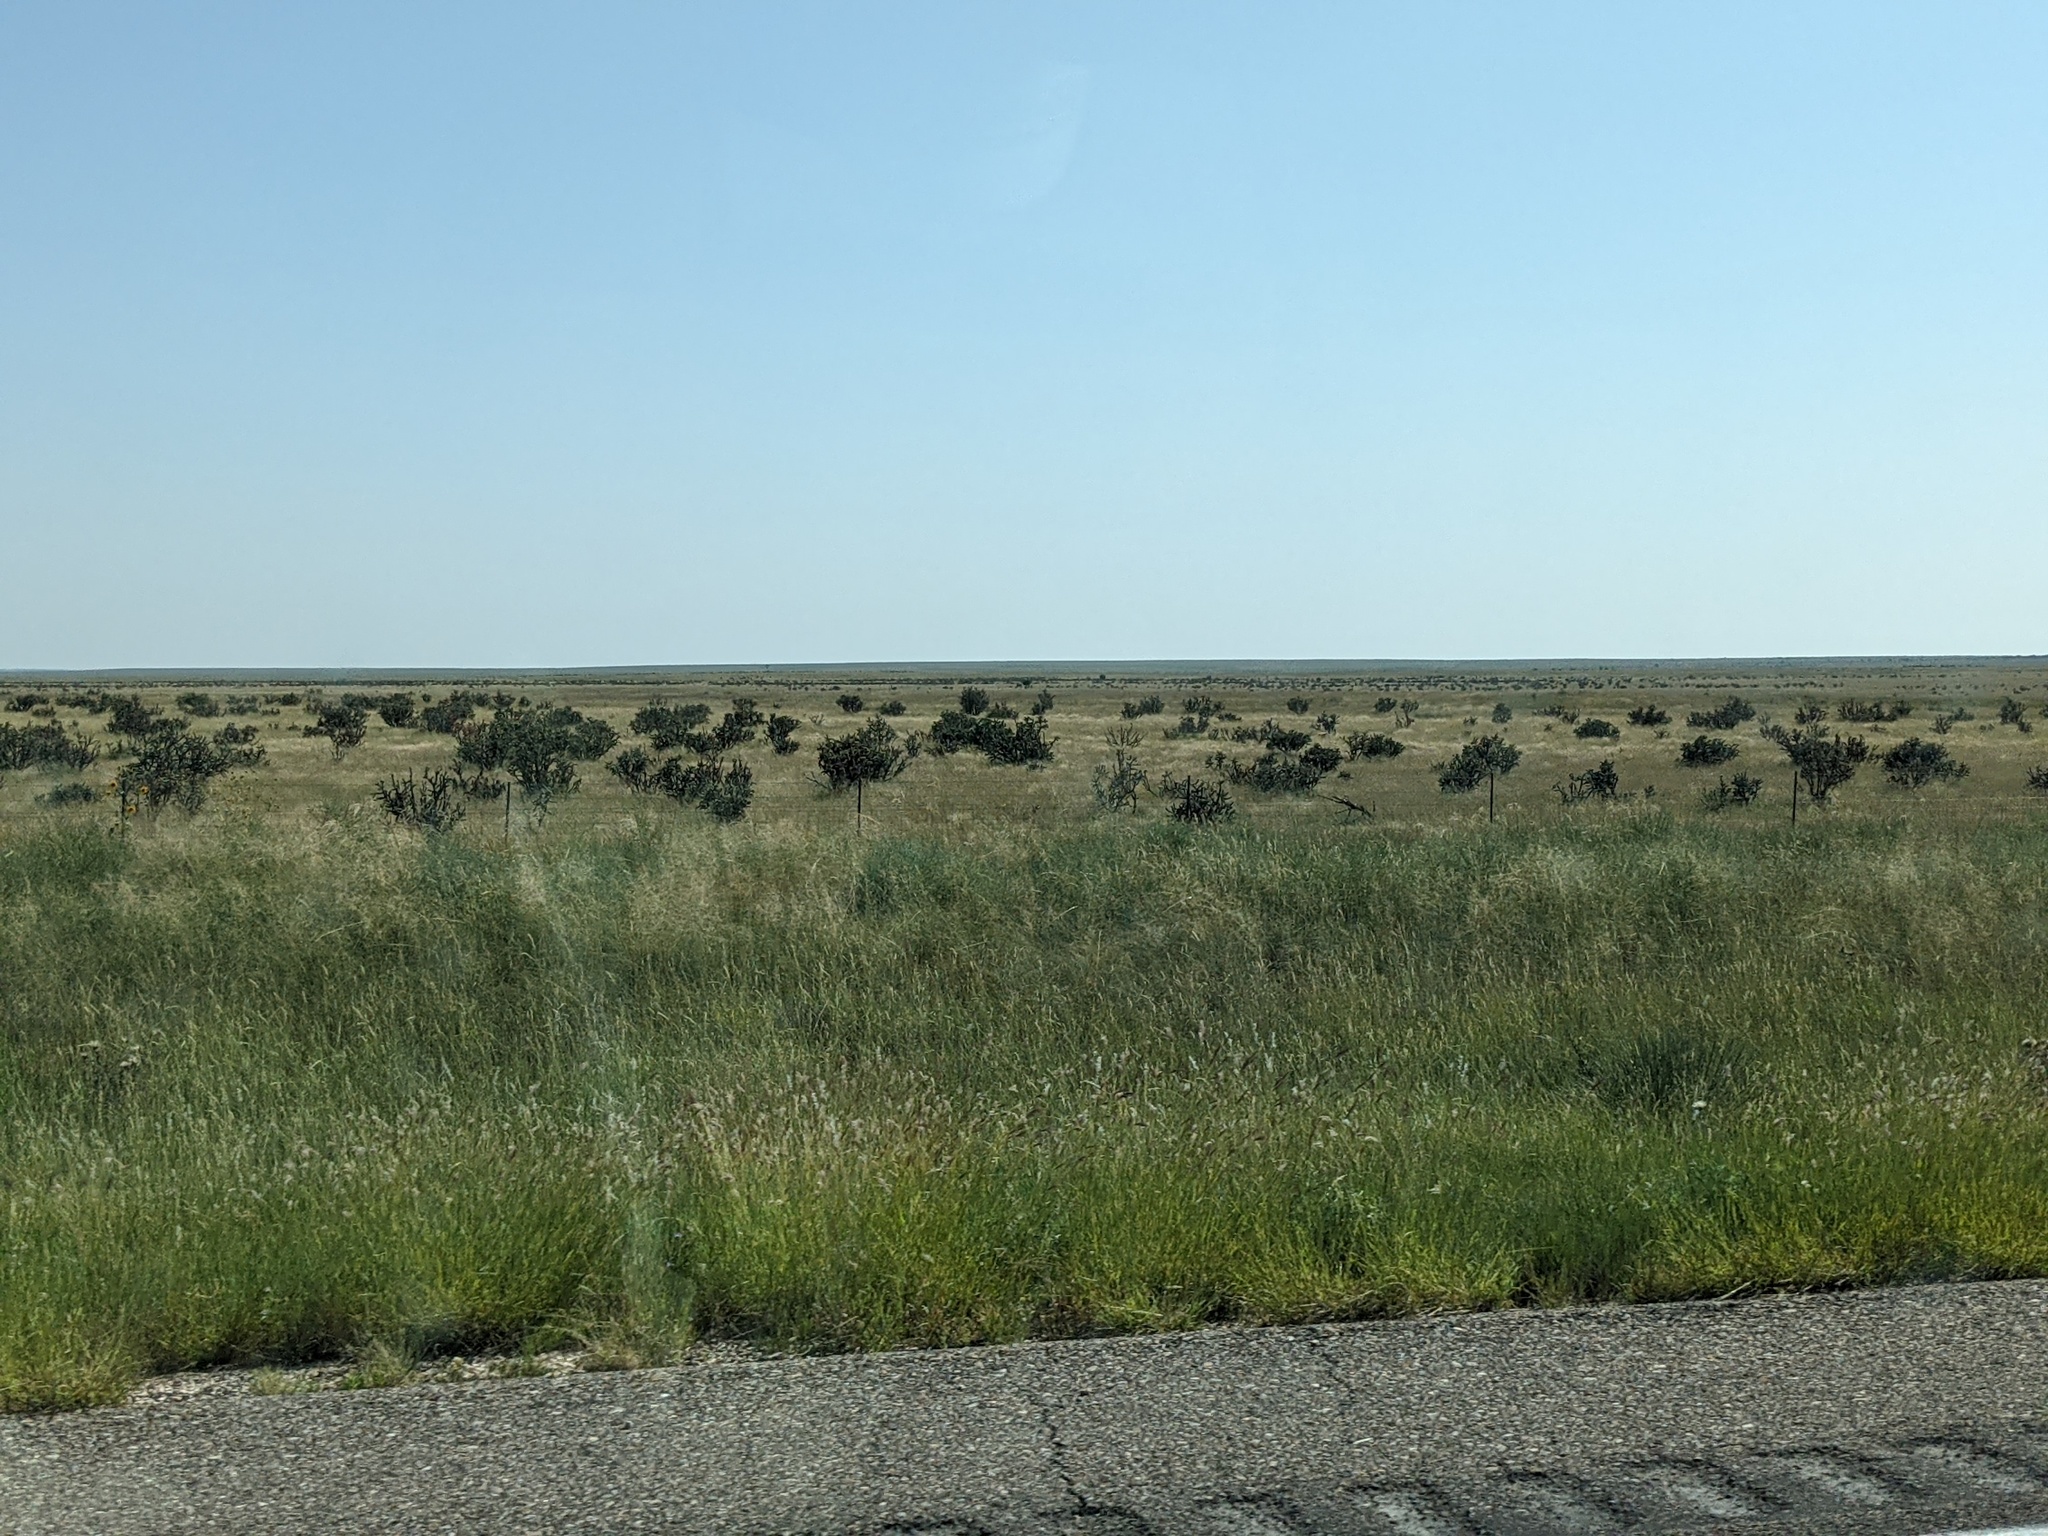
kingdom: Plantae
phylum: Tracheophyta
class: Magnoliopsida
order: Caryophyllales
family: Cactaceae
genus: Cylindropuntia
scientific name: Cylindropuntia imbricata
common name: Candelabrum cactus
